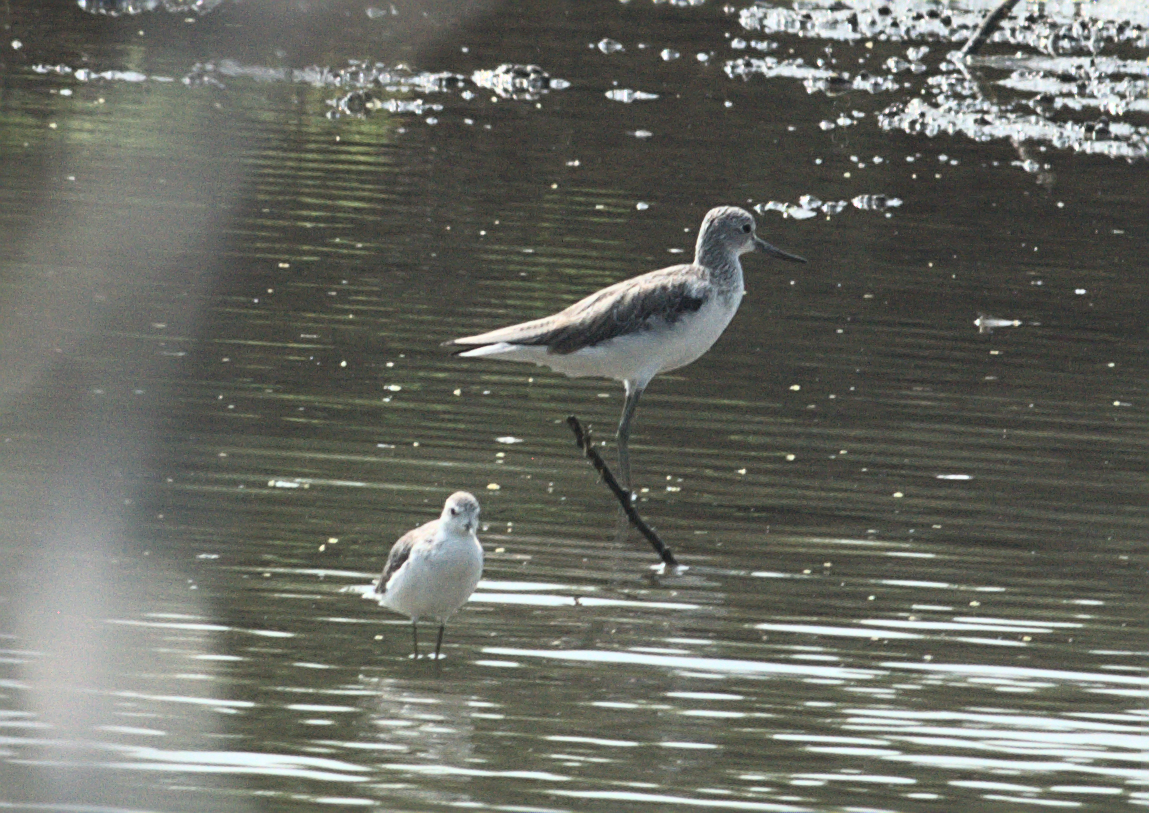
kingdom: Animalia
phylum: Chordata
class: Aves
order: Charadriiformes
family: Scolopacidae
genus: Tringa
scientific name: Tringa stagnatilis
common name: Marsh sandpiper
